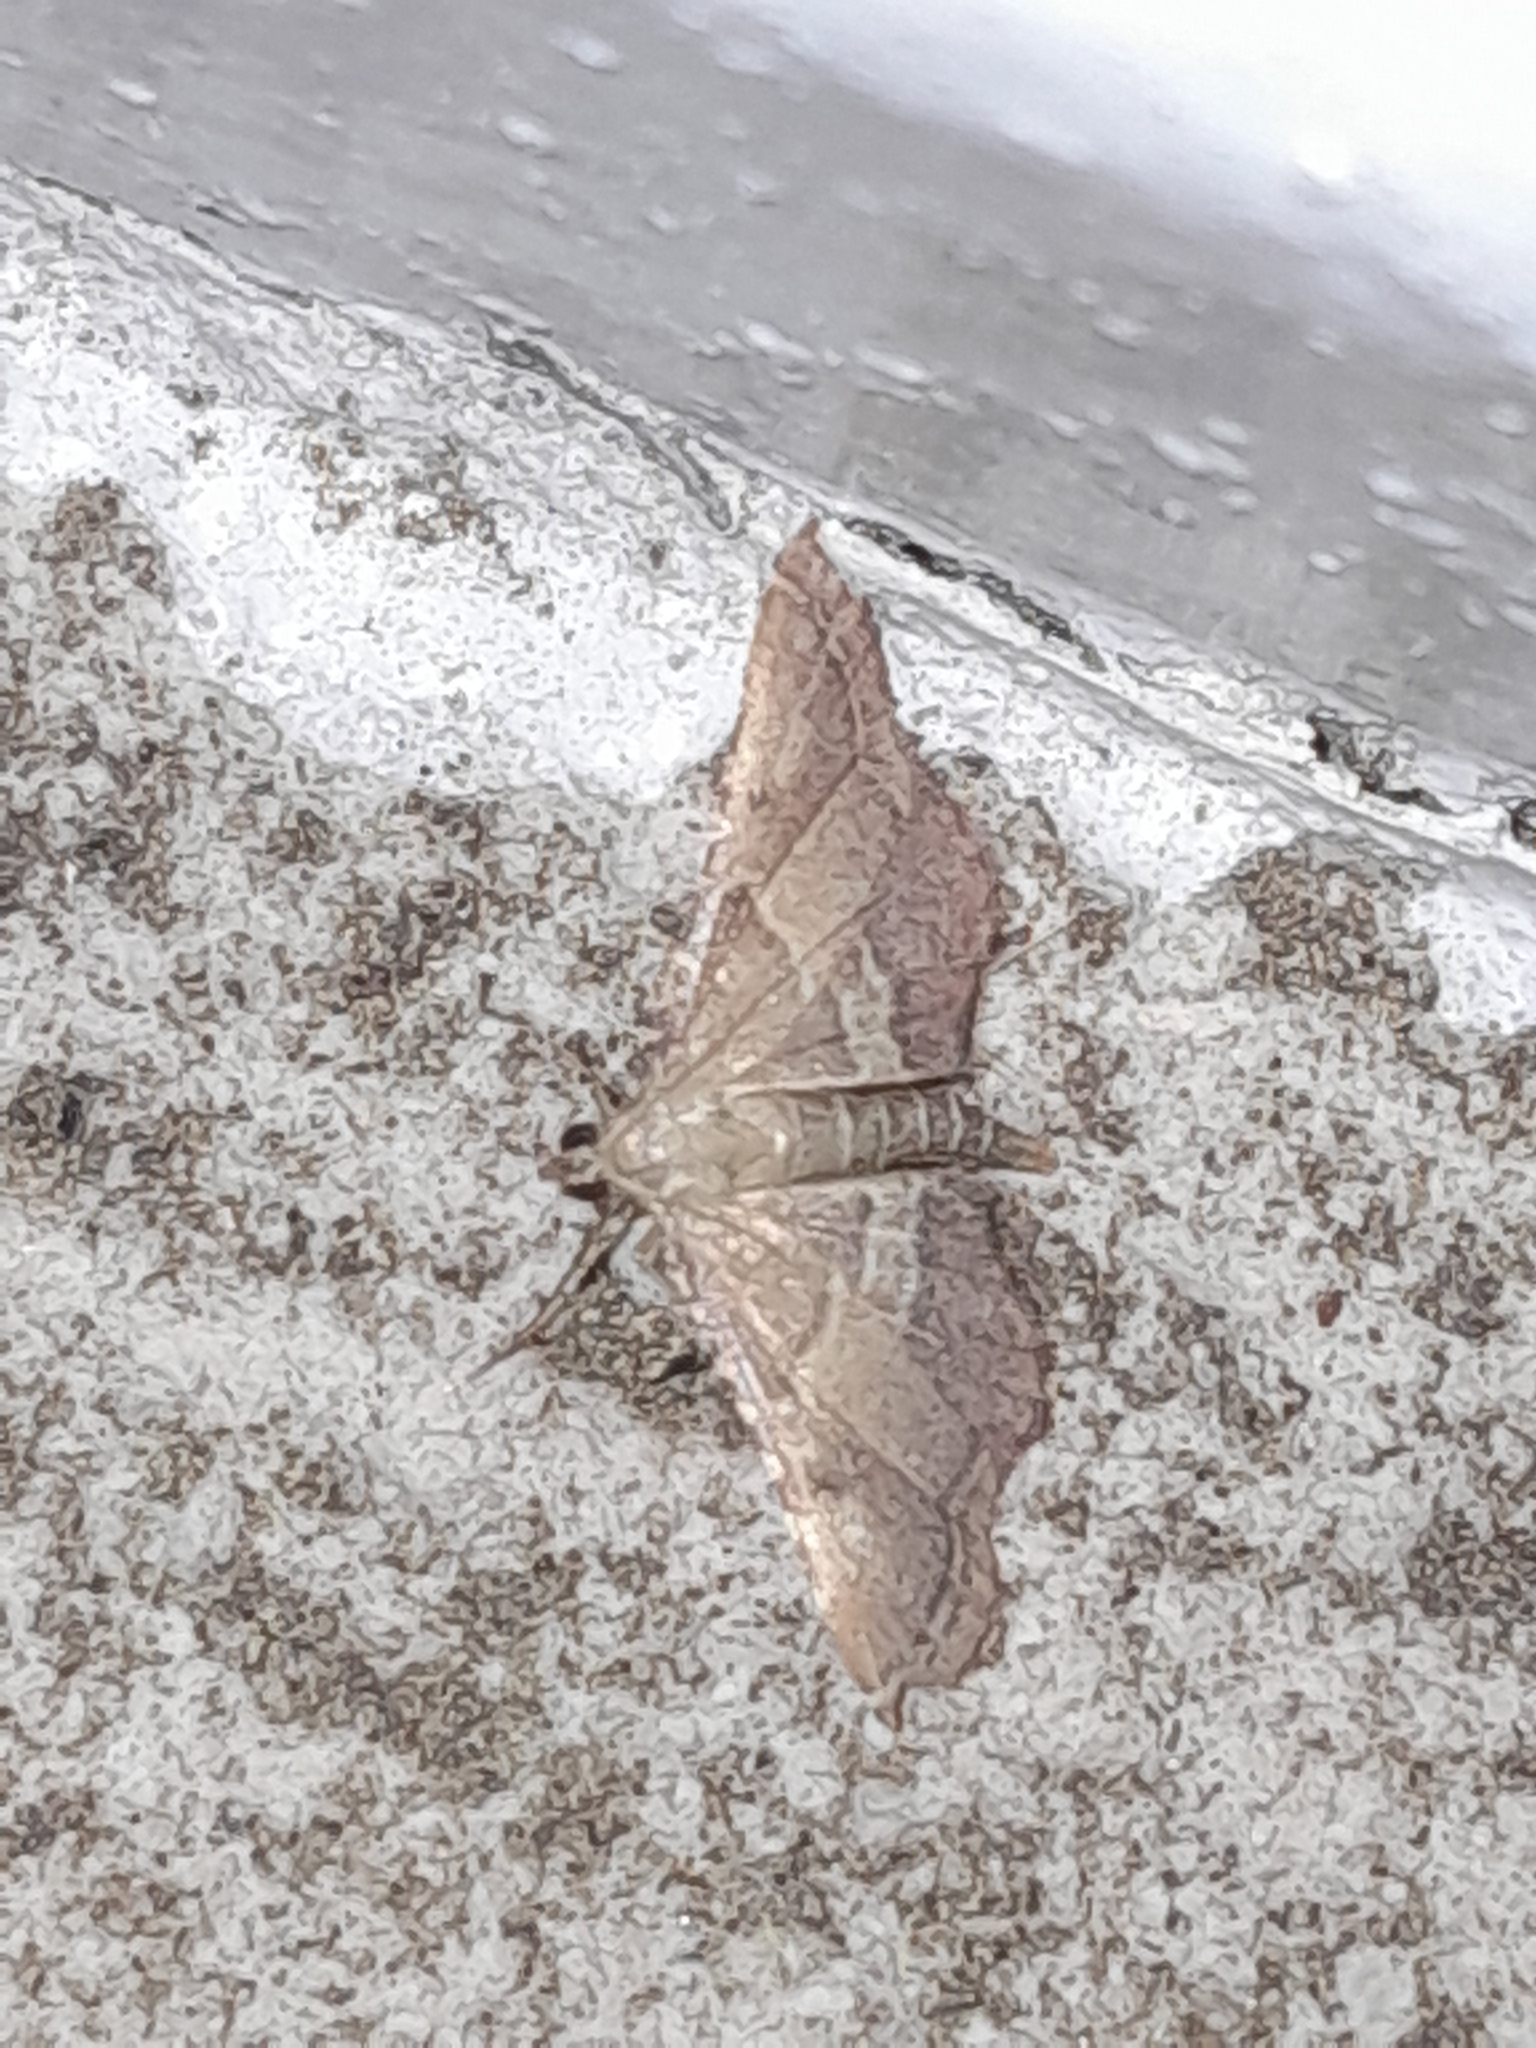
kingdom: Animalia
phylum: Arthropoda
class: Insecta
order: Lepidoptera
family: Pyralidae
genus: Endotricha
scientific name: Endotricha flammealis
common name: Rosy tabby
